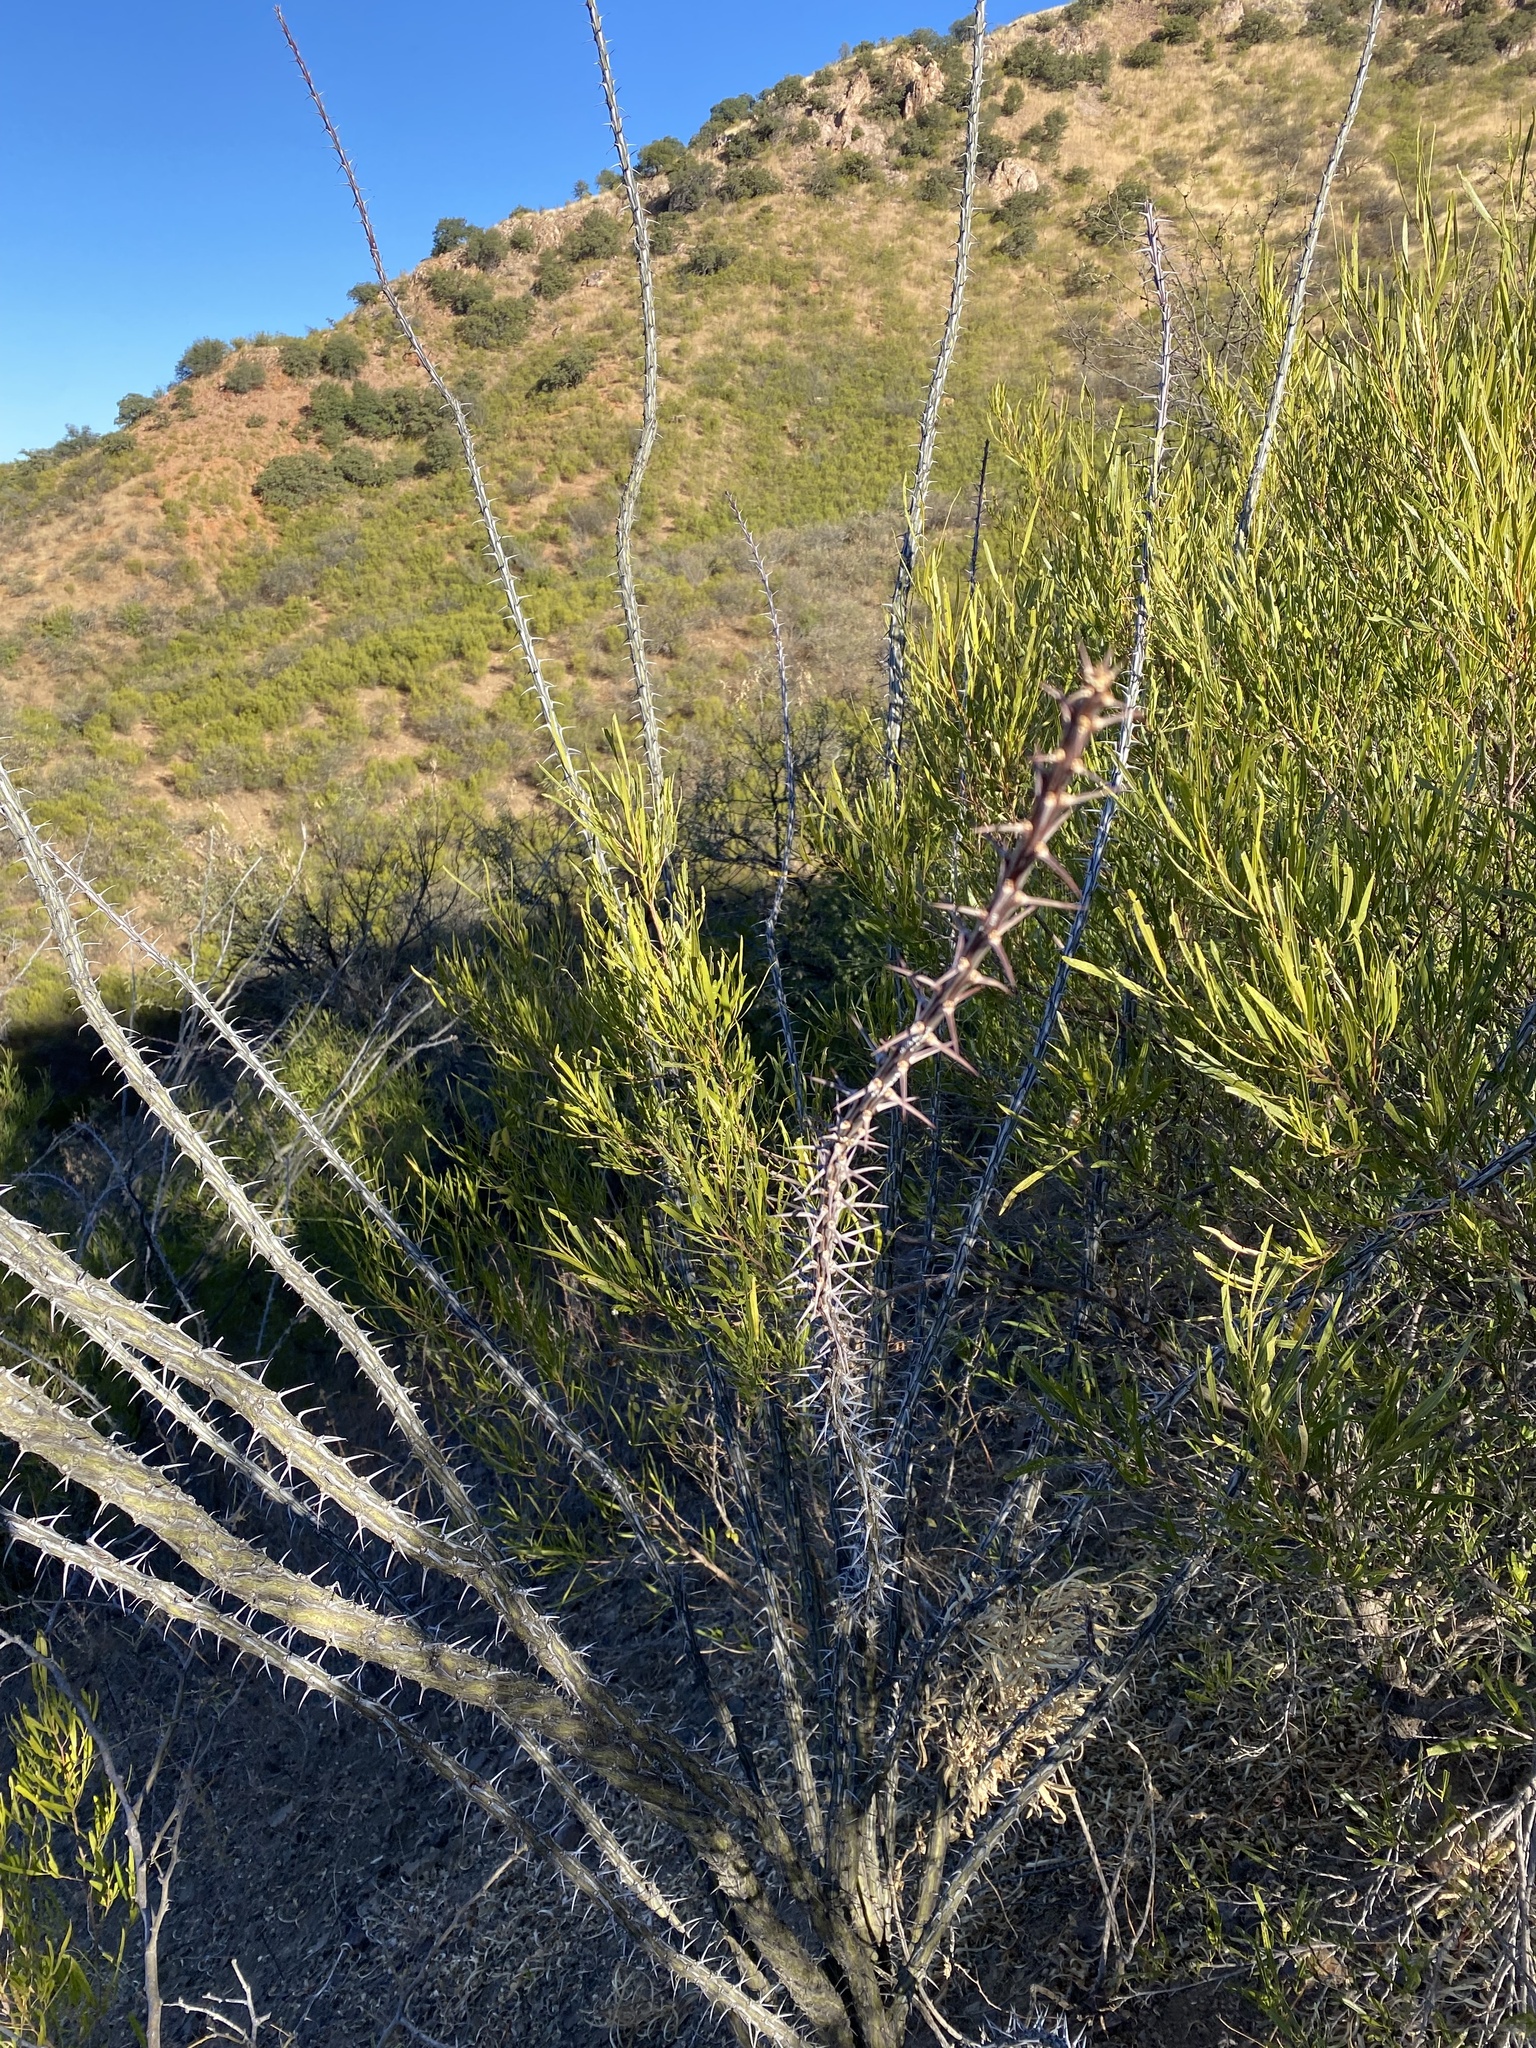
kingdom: Plantae
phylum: Tracheophyta
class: Magnoliopsida
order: Ericales
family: Fouquieriaceae
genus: Fouquieria
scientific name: Fouquieria splendens
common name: Vine-cactus
